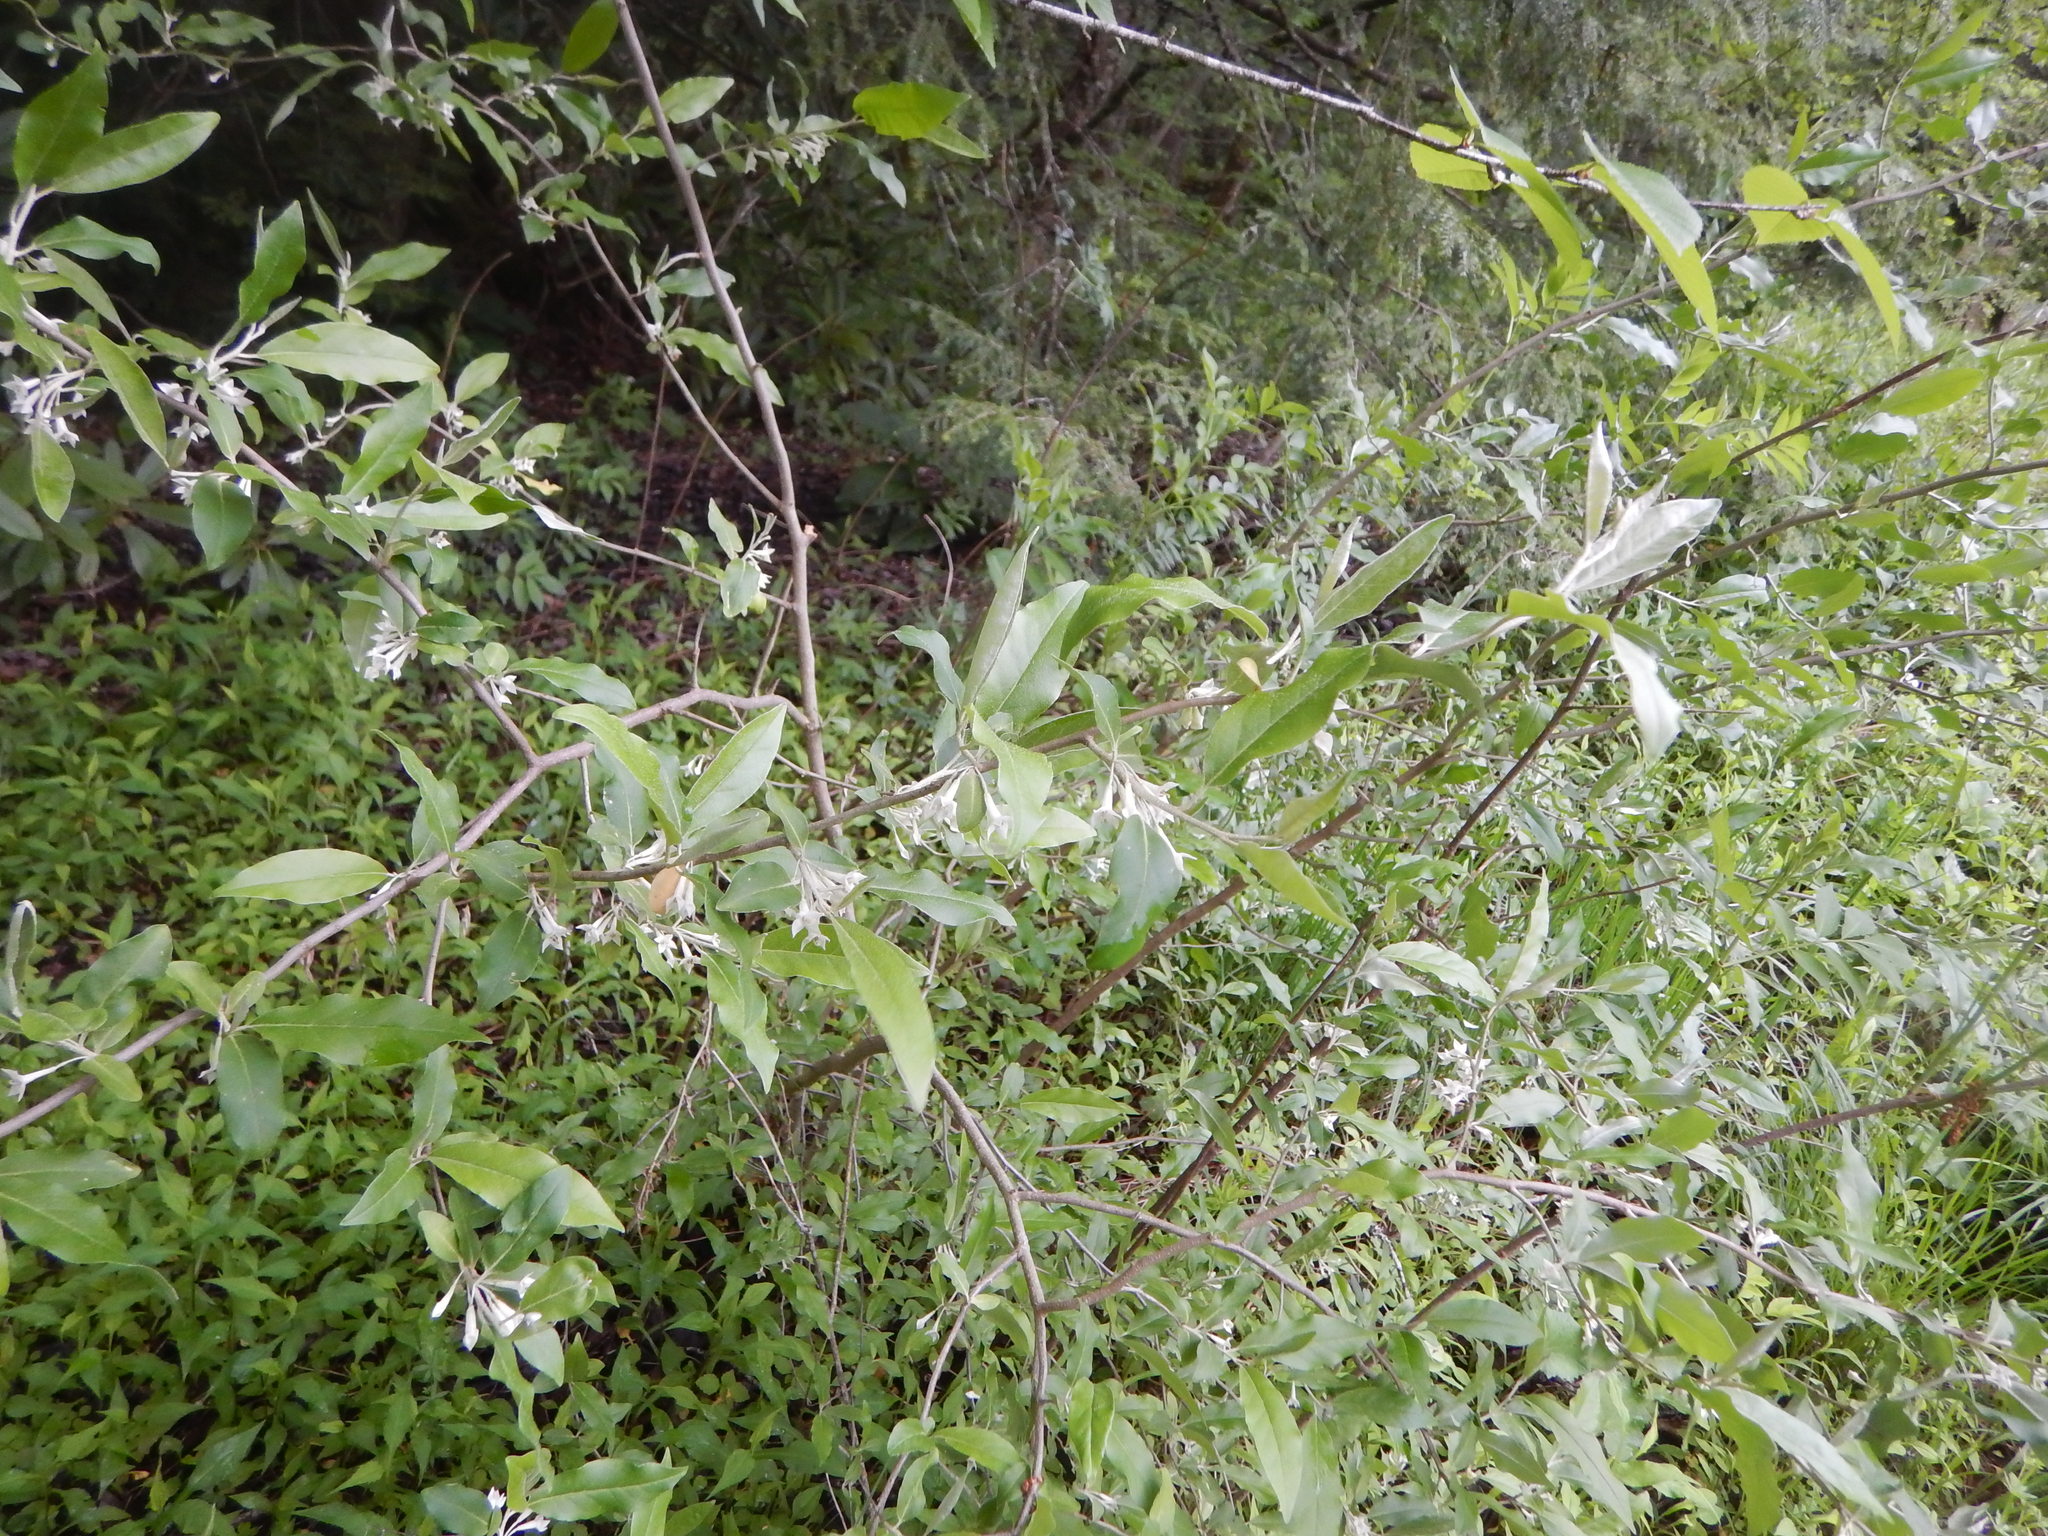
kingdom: Plantae
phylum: Tracheophyta
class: Magnoliopsida
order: Rosales
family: Elaeagnaceae
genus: Elaeagnus
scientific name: Elaeagnus umbellata
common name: Autumn olive
